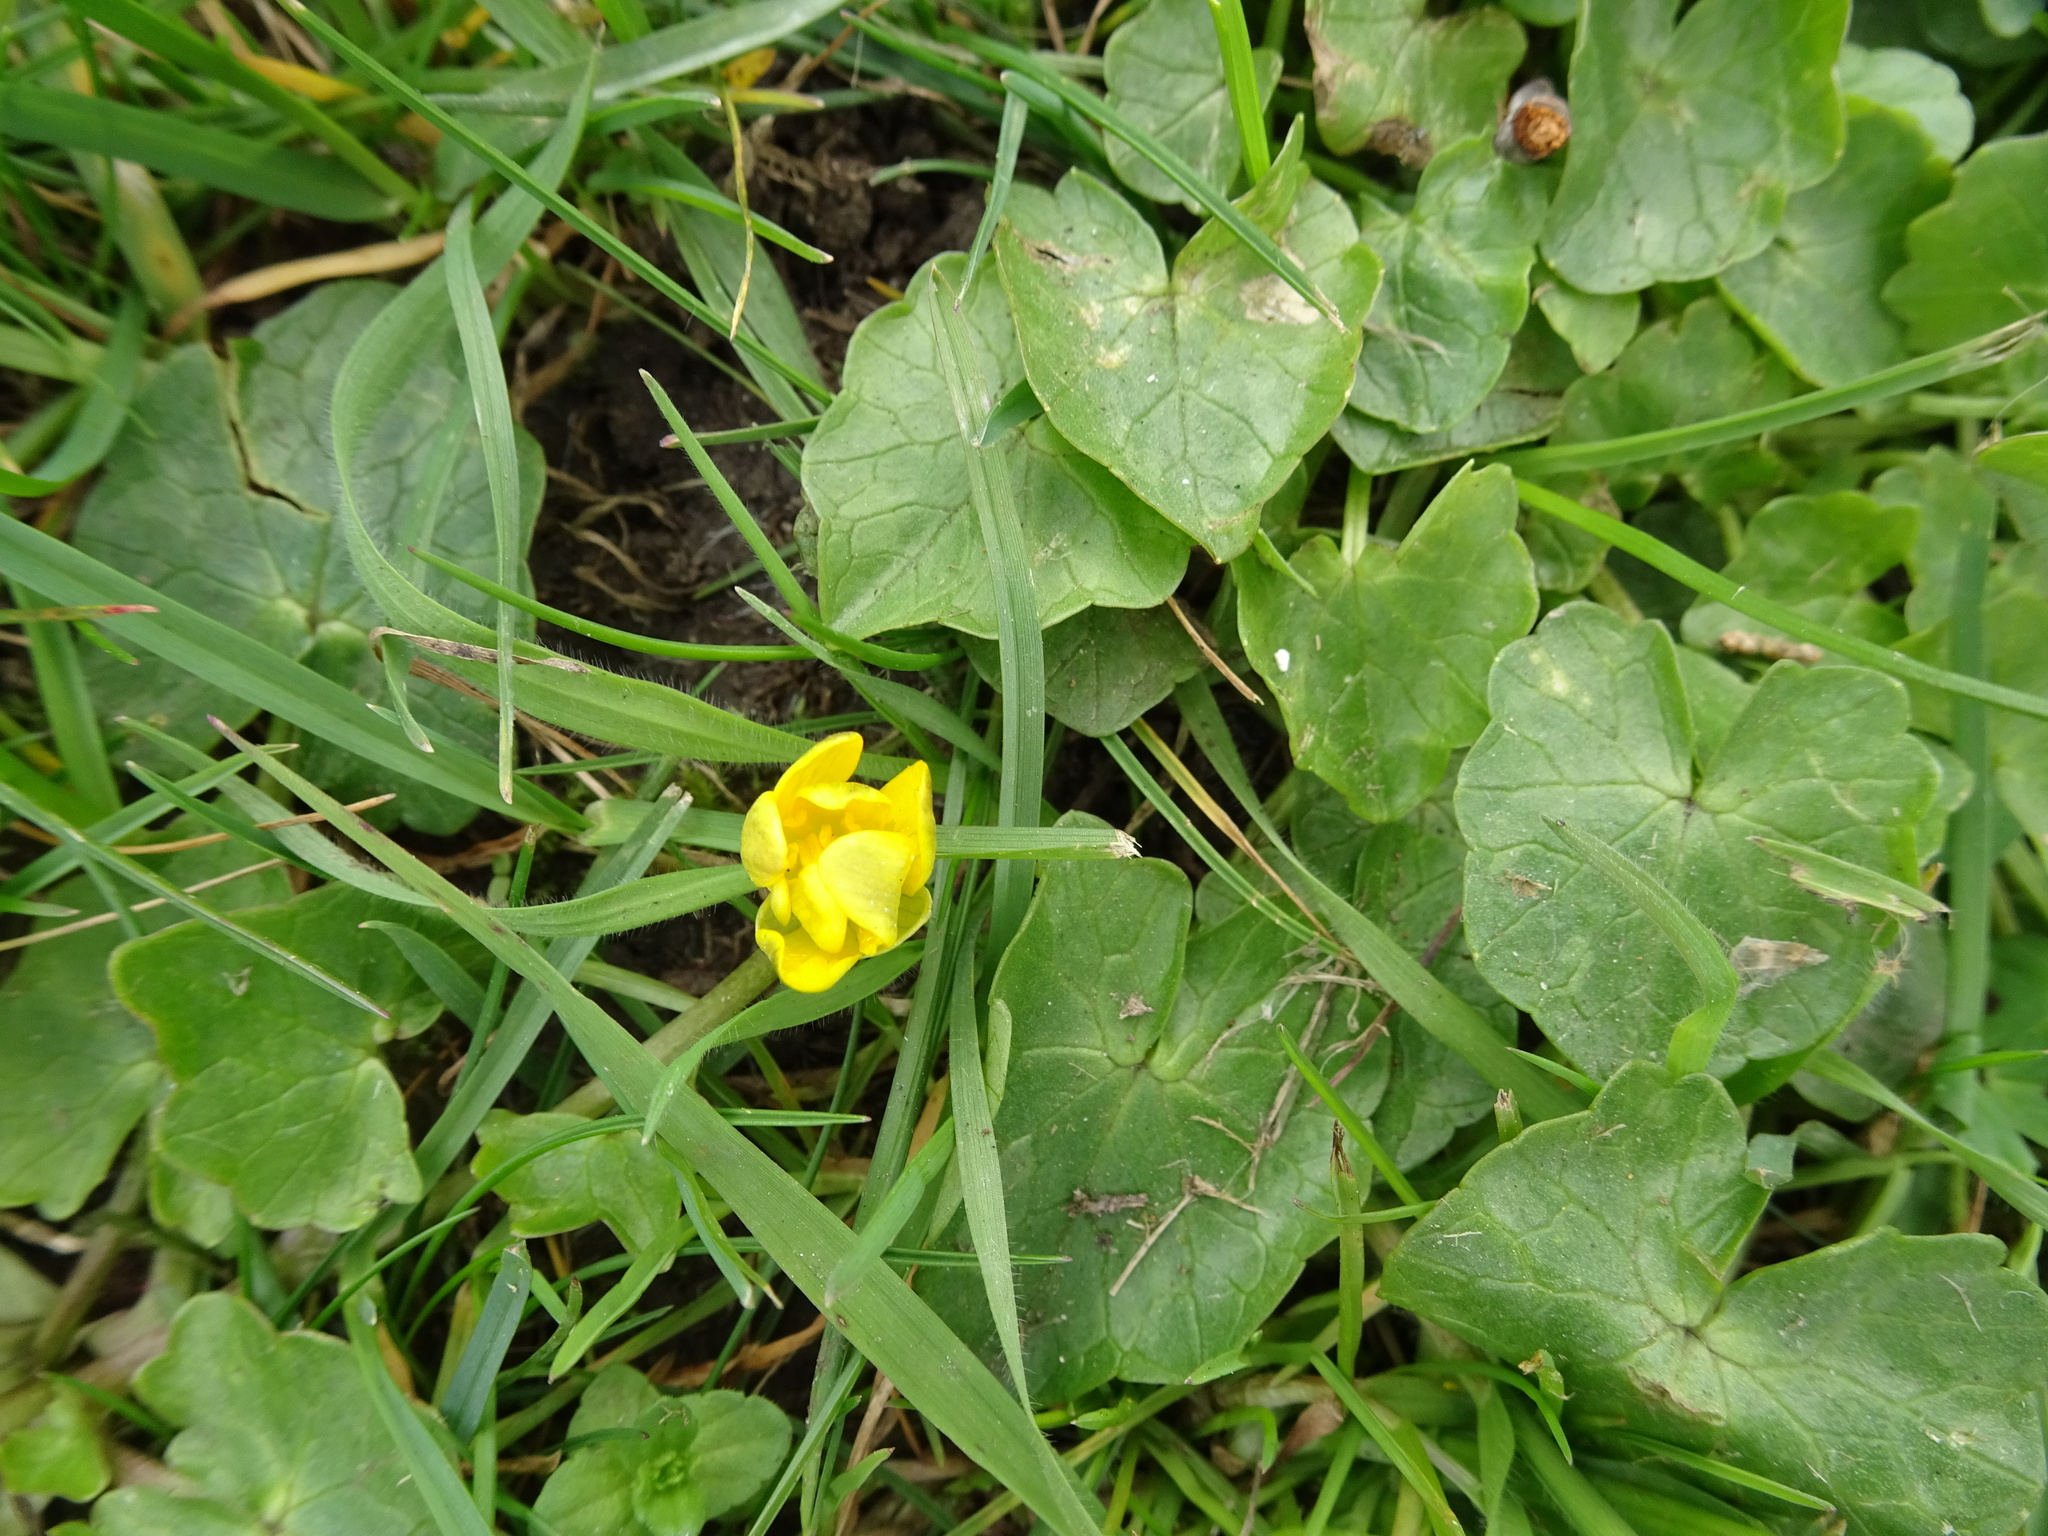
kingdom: Plantae
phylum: Tracheophyta
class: Magnoliopsida
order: Ranunculales
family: Ranunculaceae
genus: Ficaria
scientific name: Ficaria verna
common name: Lesser celandine
